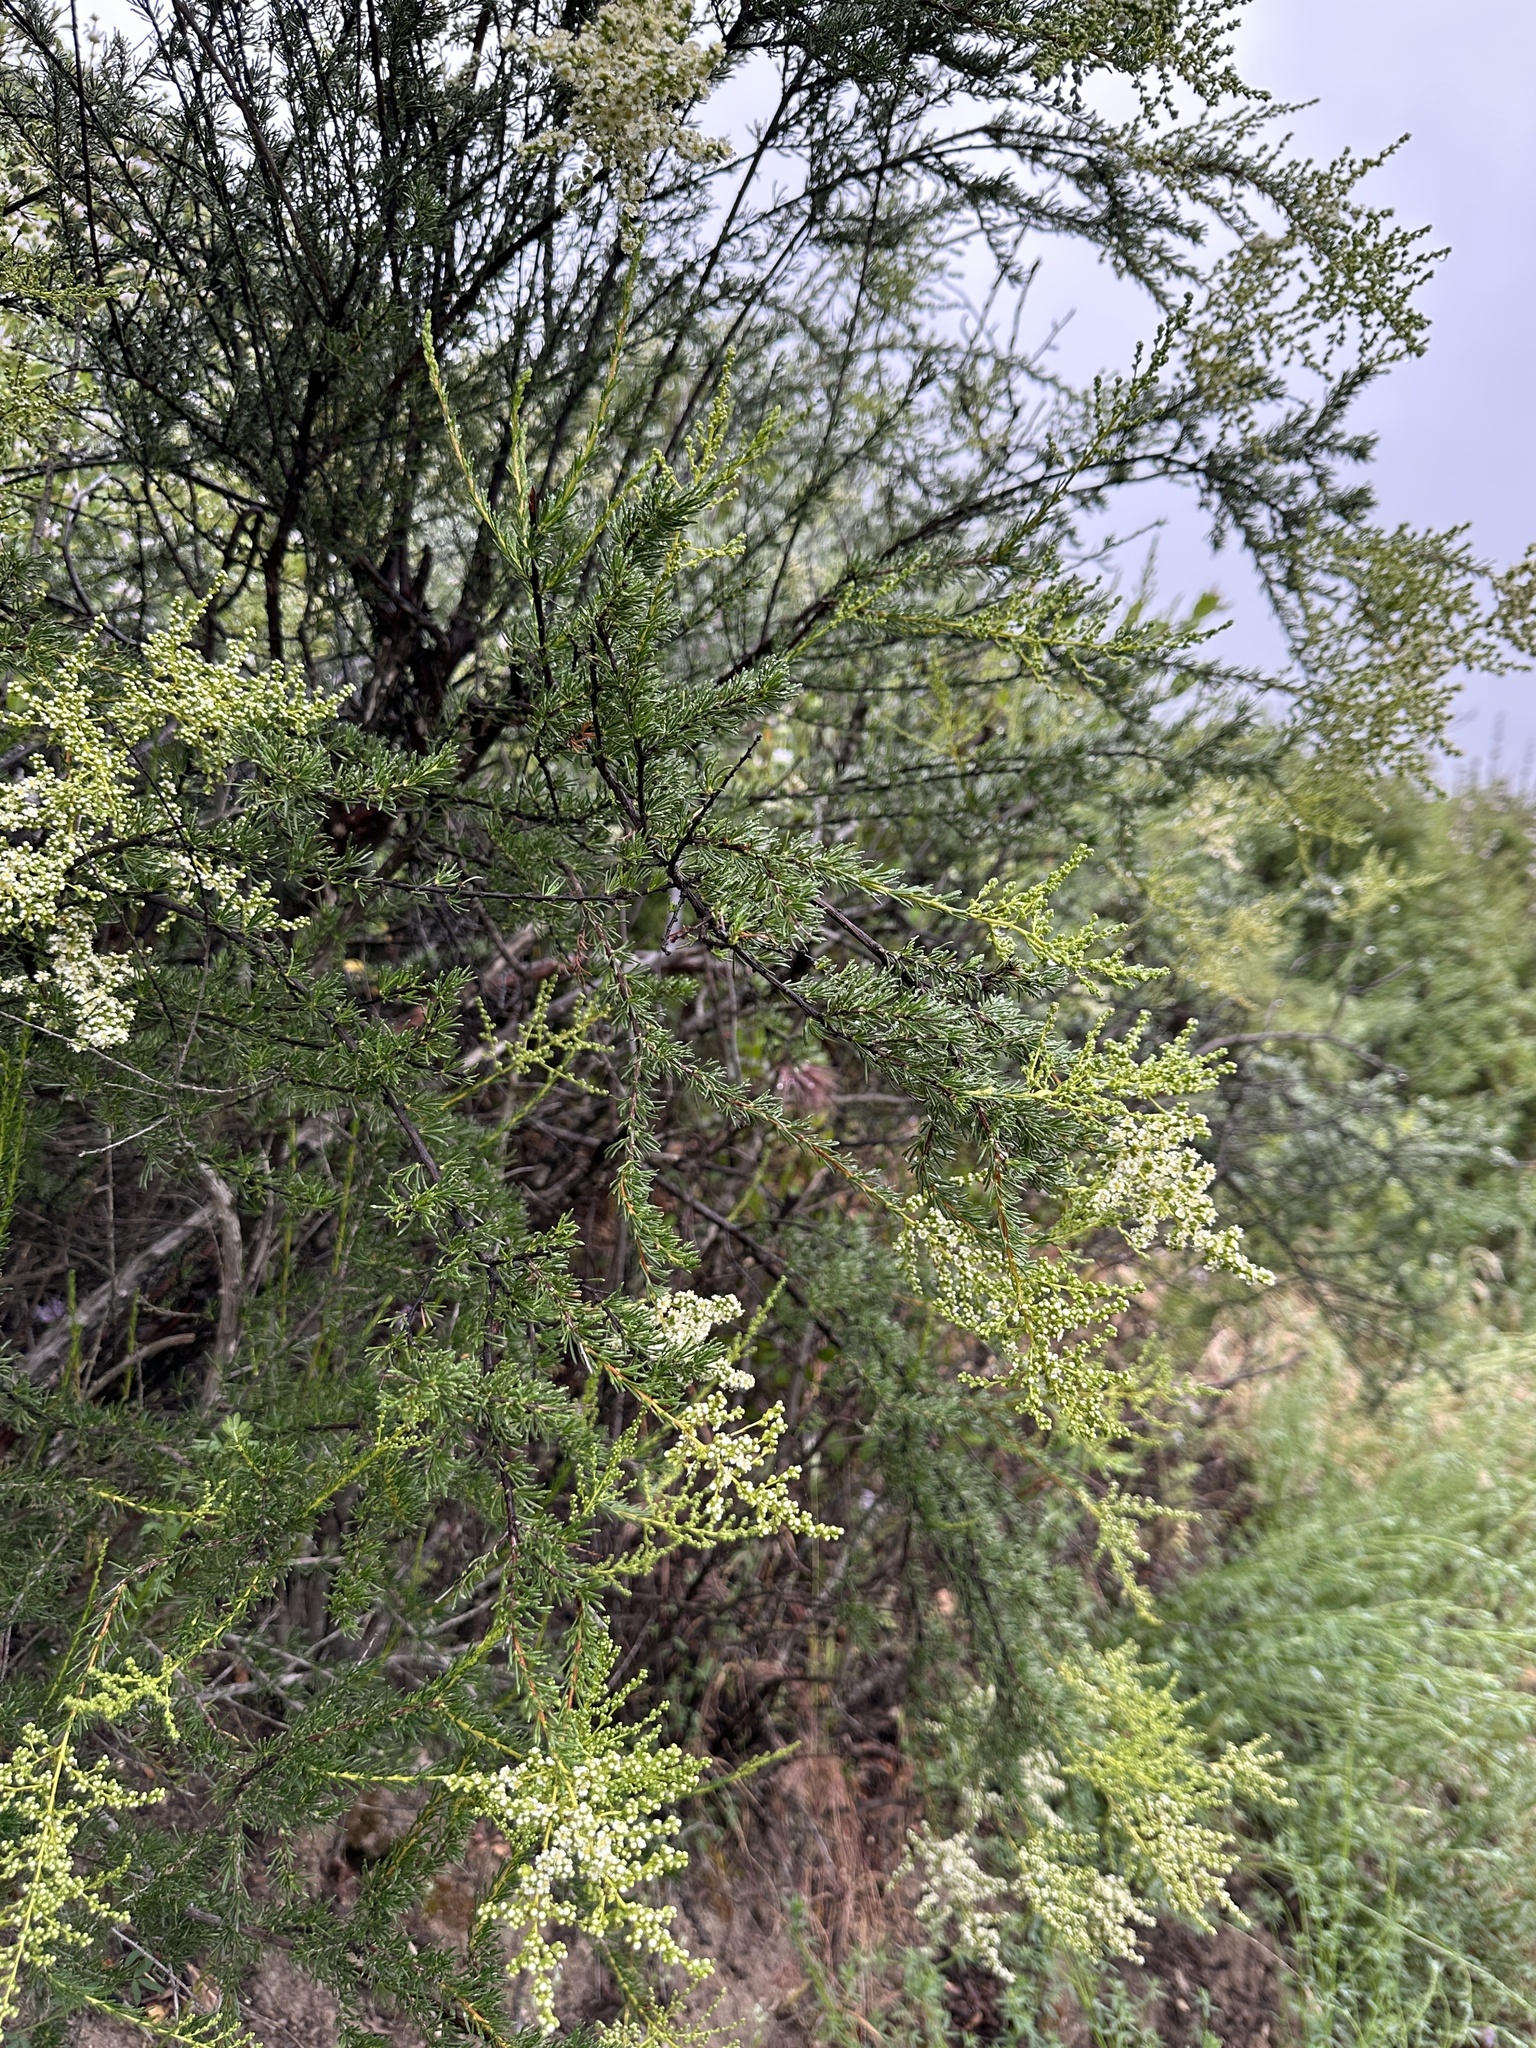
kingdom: Plantae
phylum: Tracheophyta
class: Magnoliopsida
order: Rosales
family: Rosaceae
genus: Adenostoma
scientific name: Adenostoma fasciculatum
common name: Chamise
